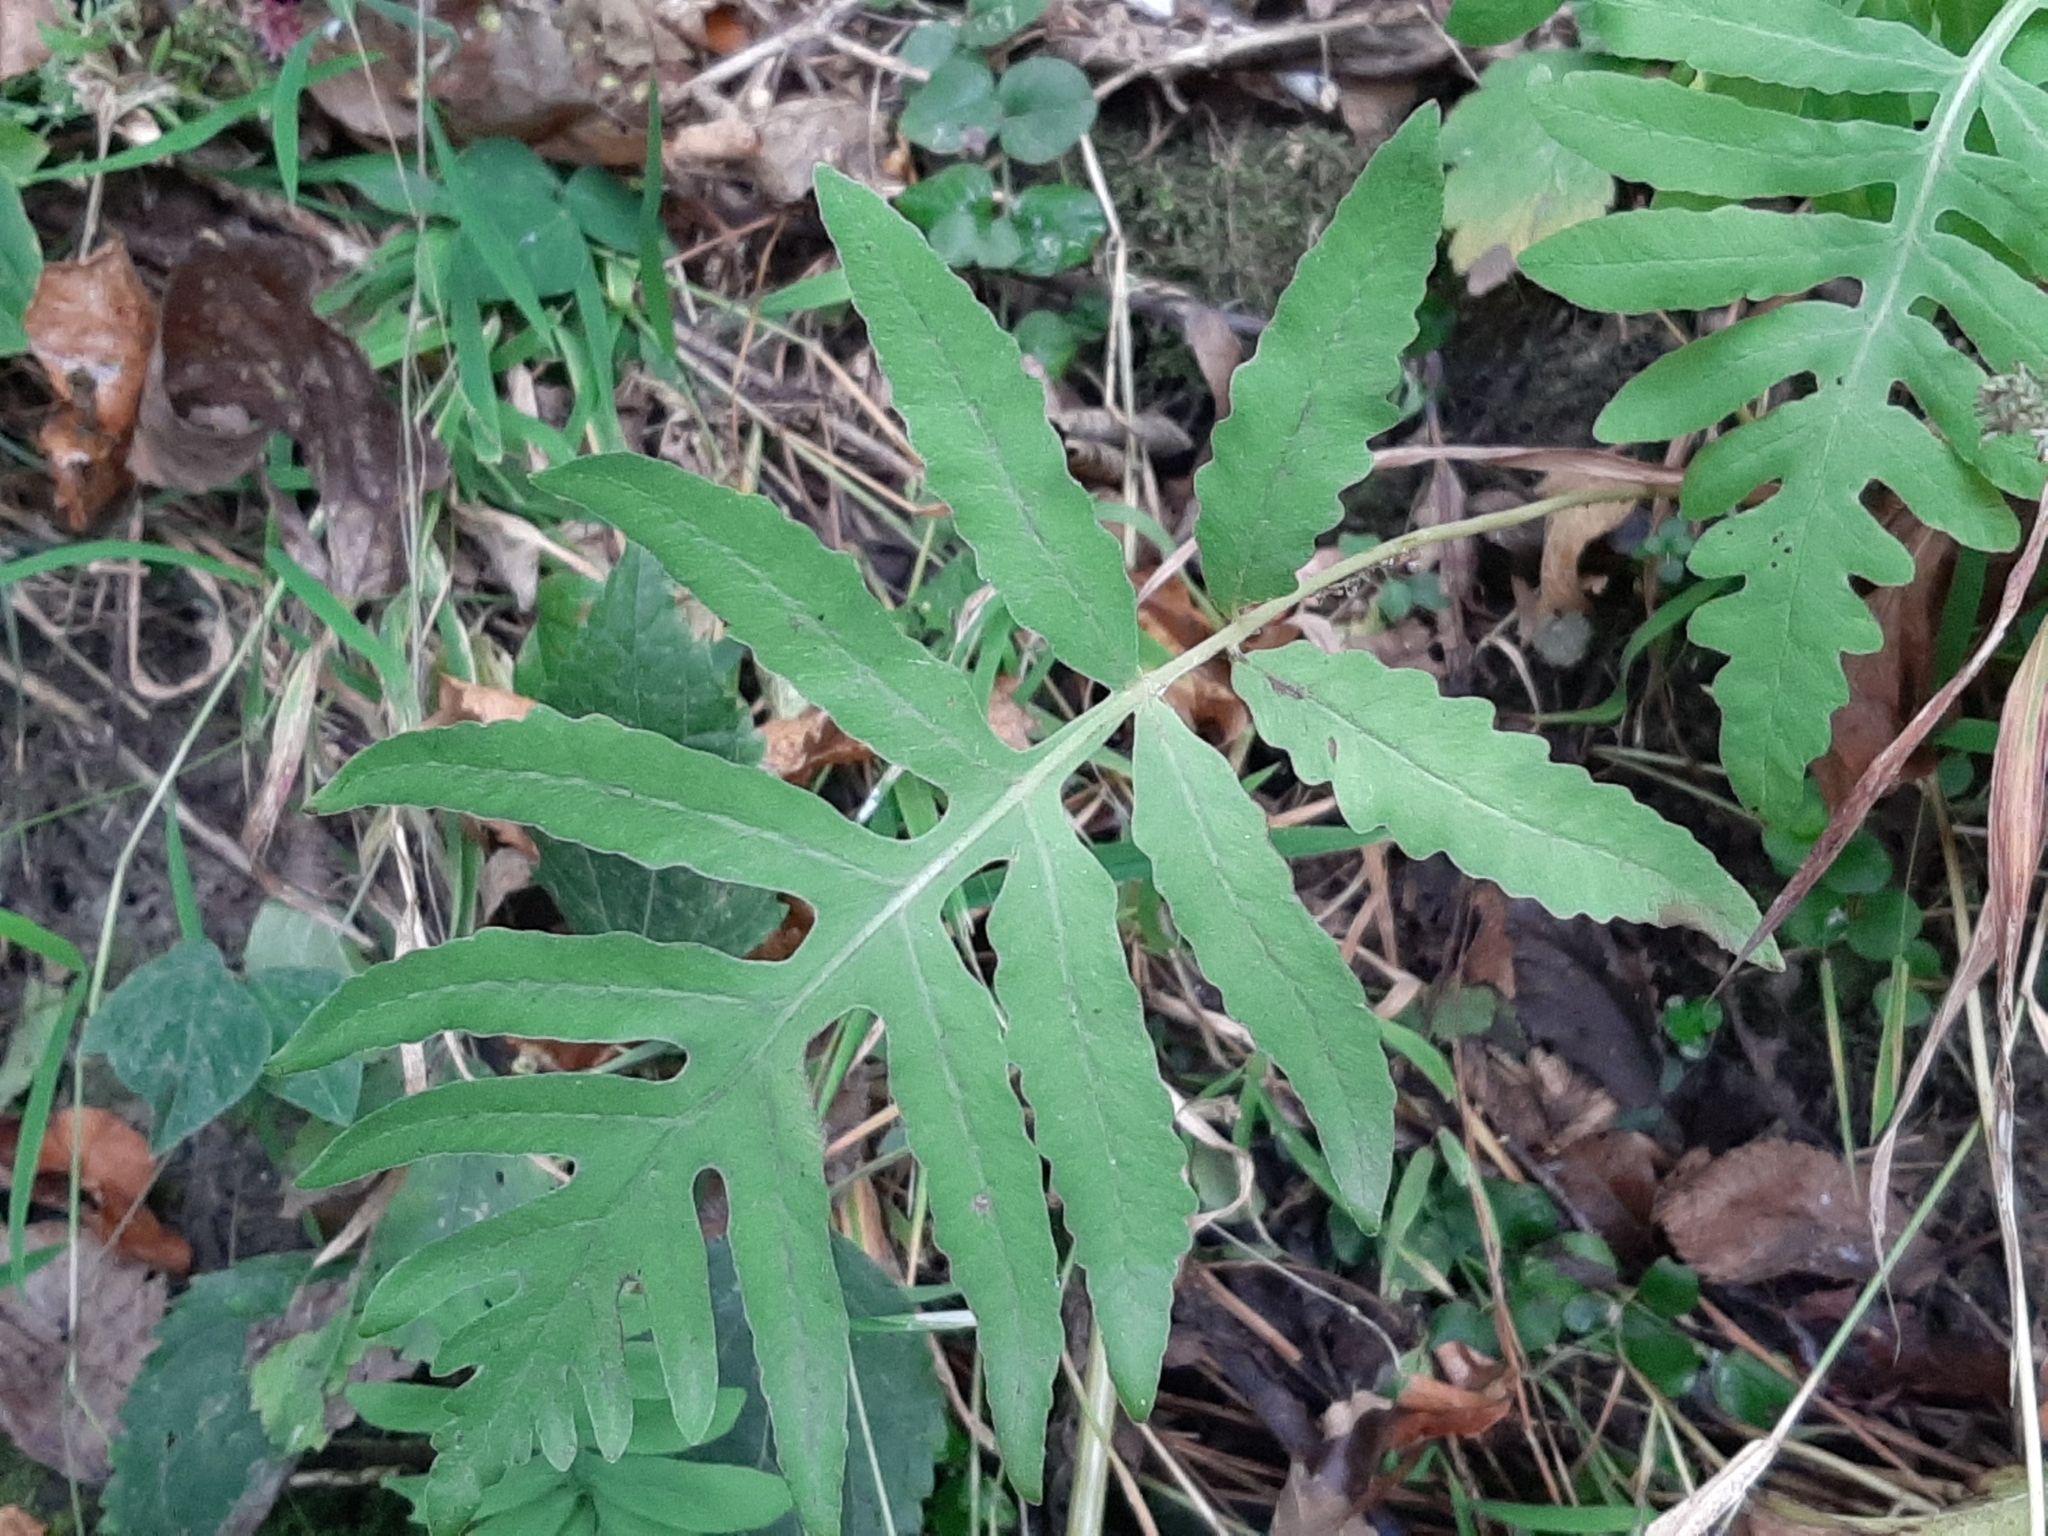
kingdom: Plantae
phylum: Tracheophyta
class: Polypodiopsida
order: Polypodiales
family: Onocleaceae
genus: Onoclea
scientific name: Onoclea sensibilis
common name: Sensitive fern
